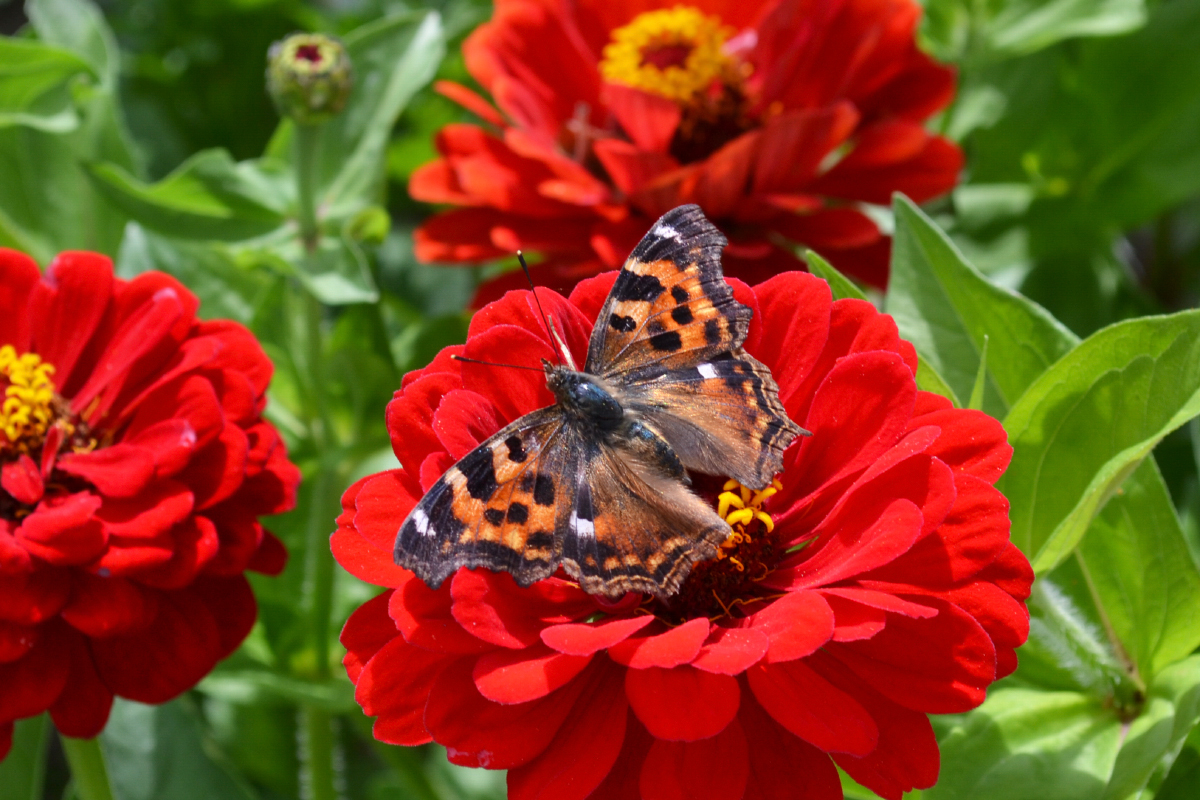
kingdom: Animalia
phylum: Arthropoda
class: Insecta
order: Lepidoptera
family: Nymphalidae
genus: Polygonia
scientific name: Polygonia vaualbum
